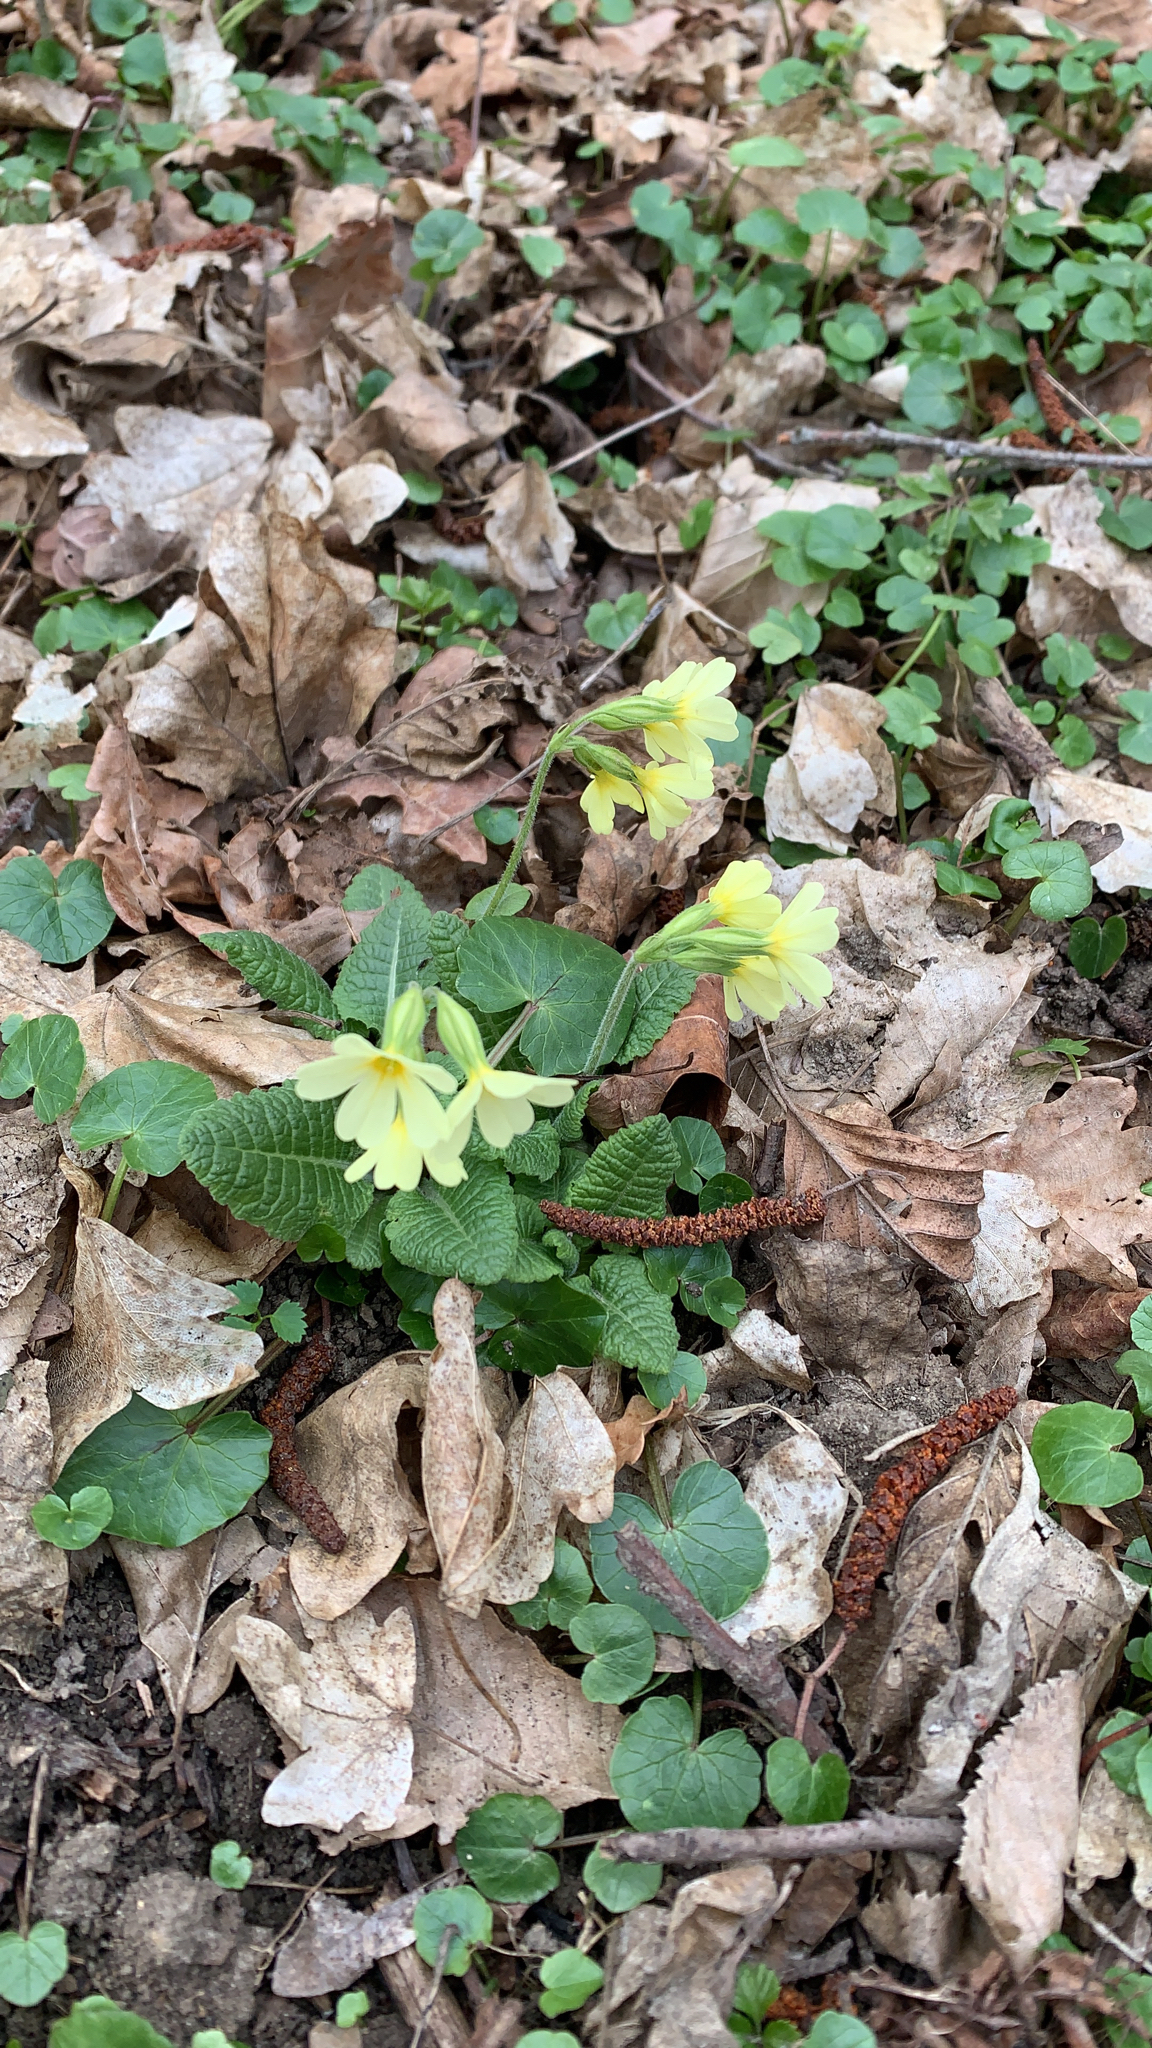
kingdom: Plantae
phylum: Tracheophyta
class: Magnoliopsida
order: Ericales
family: Primulaceae
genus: Primula
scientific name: Primula elatior
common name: Oxlip
